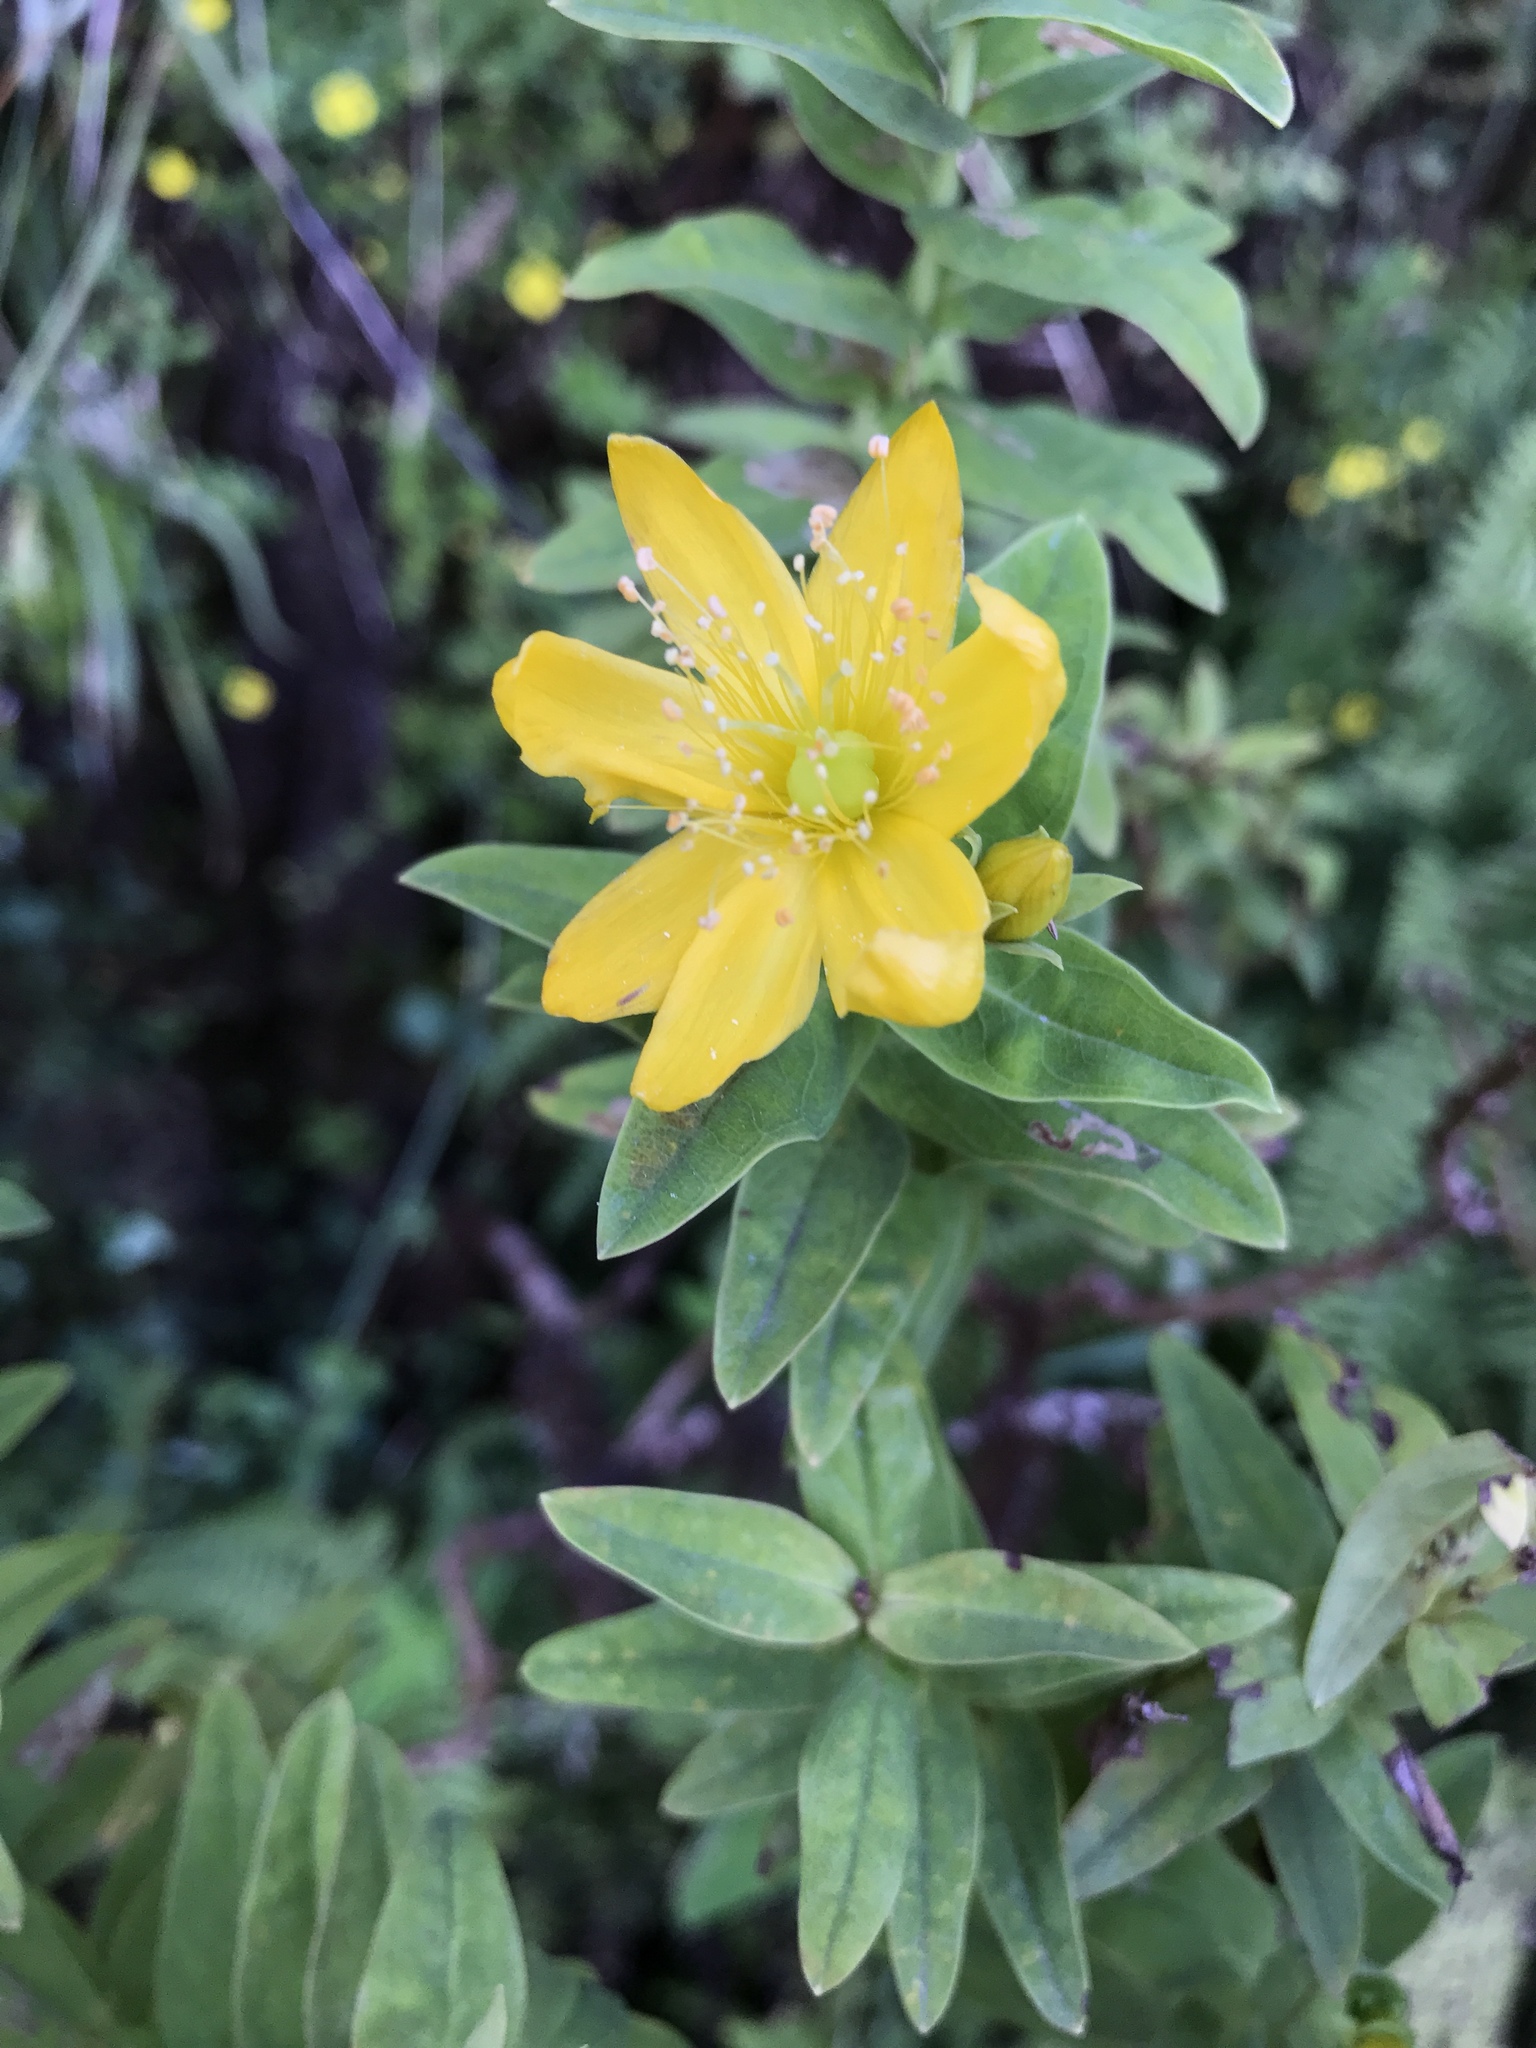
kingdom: Plantae
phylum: Tracheophyta
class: Magnoliopsida
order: Malpighiales
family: Hypericaceae
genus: Hypericum
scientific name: Hypericum foliosum
